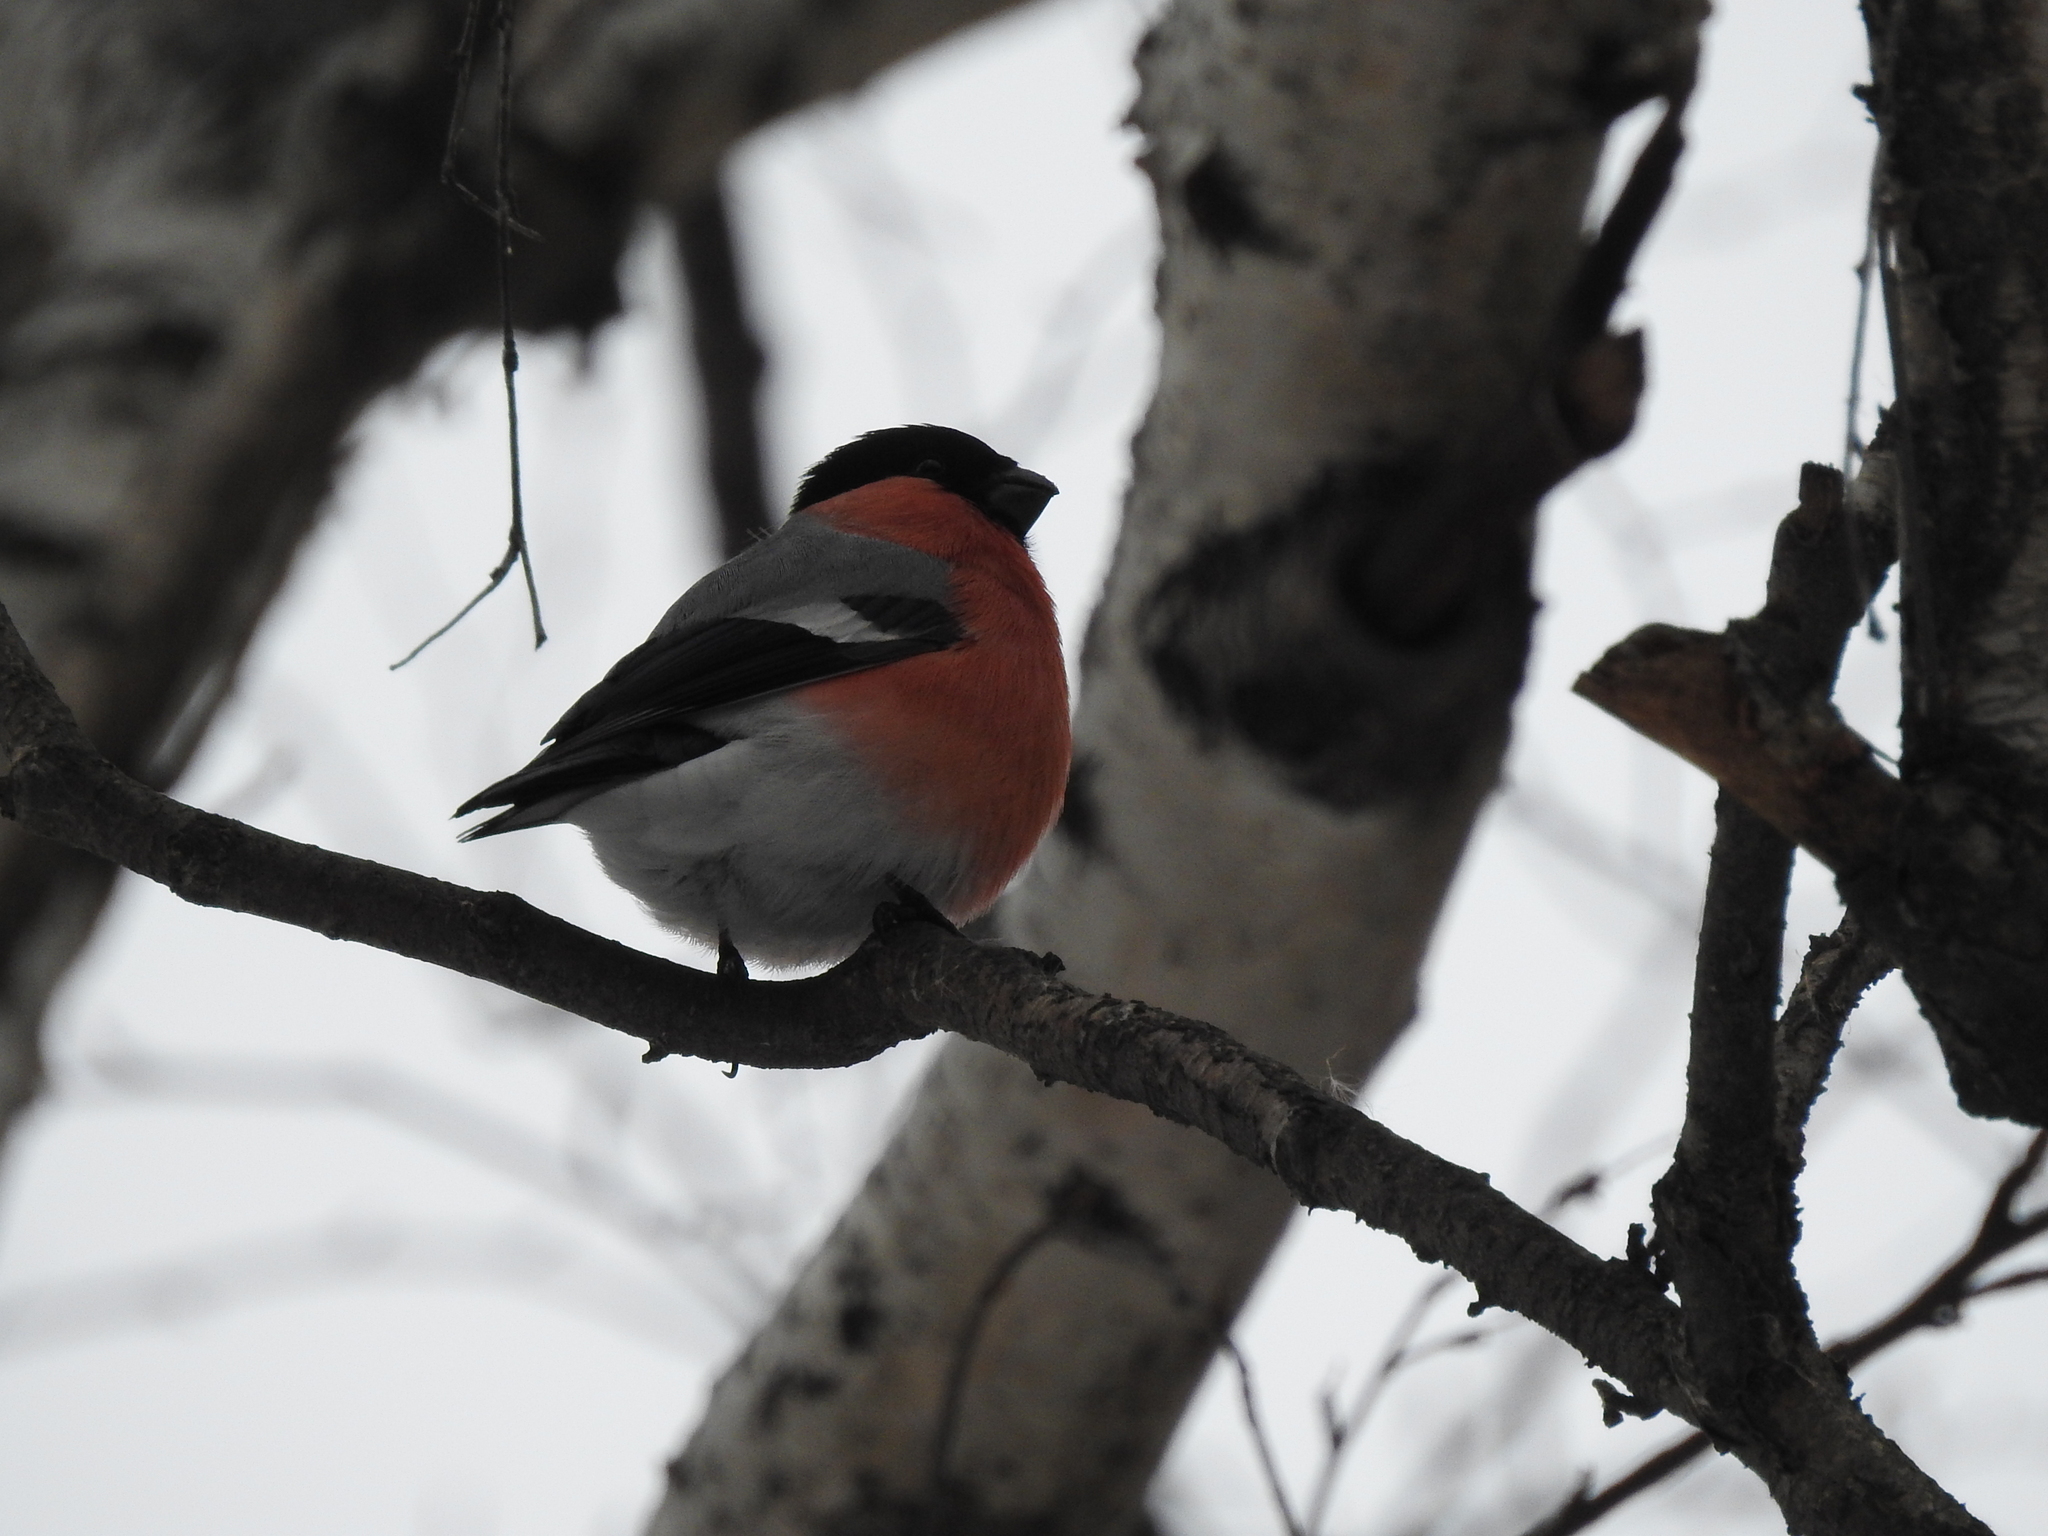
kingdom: Animalia
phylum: Chordata
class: Aves
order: Passeriformes
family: Fringillidae
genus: Pyrrhula
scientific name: Pyrrhula pyrrhula
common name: Eurasian bullfinch
